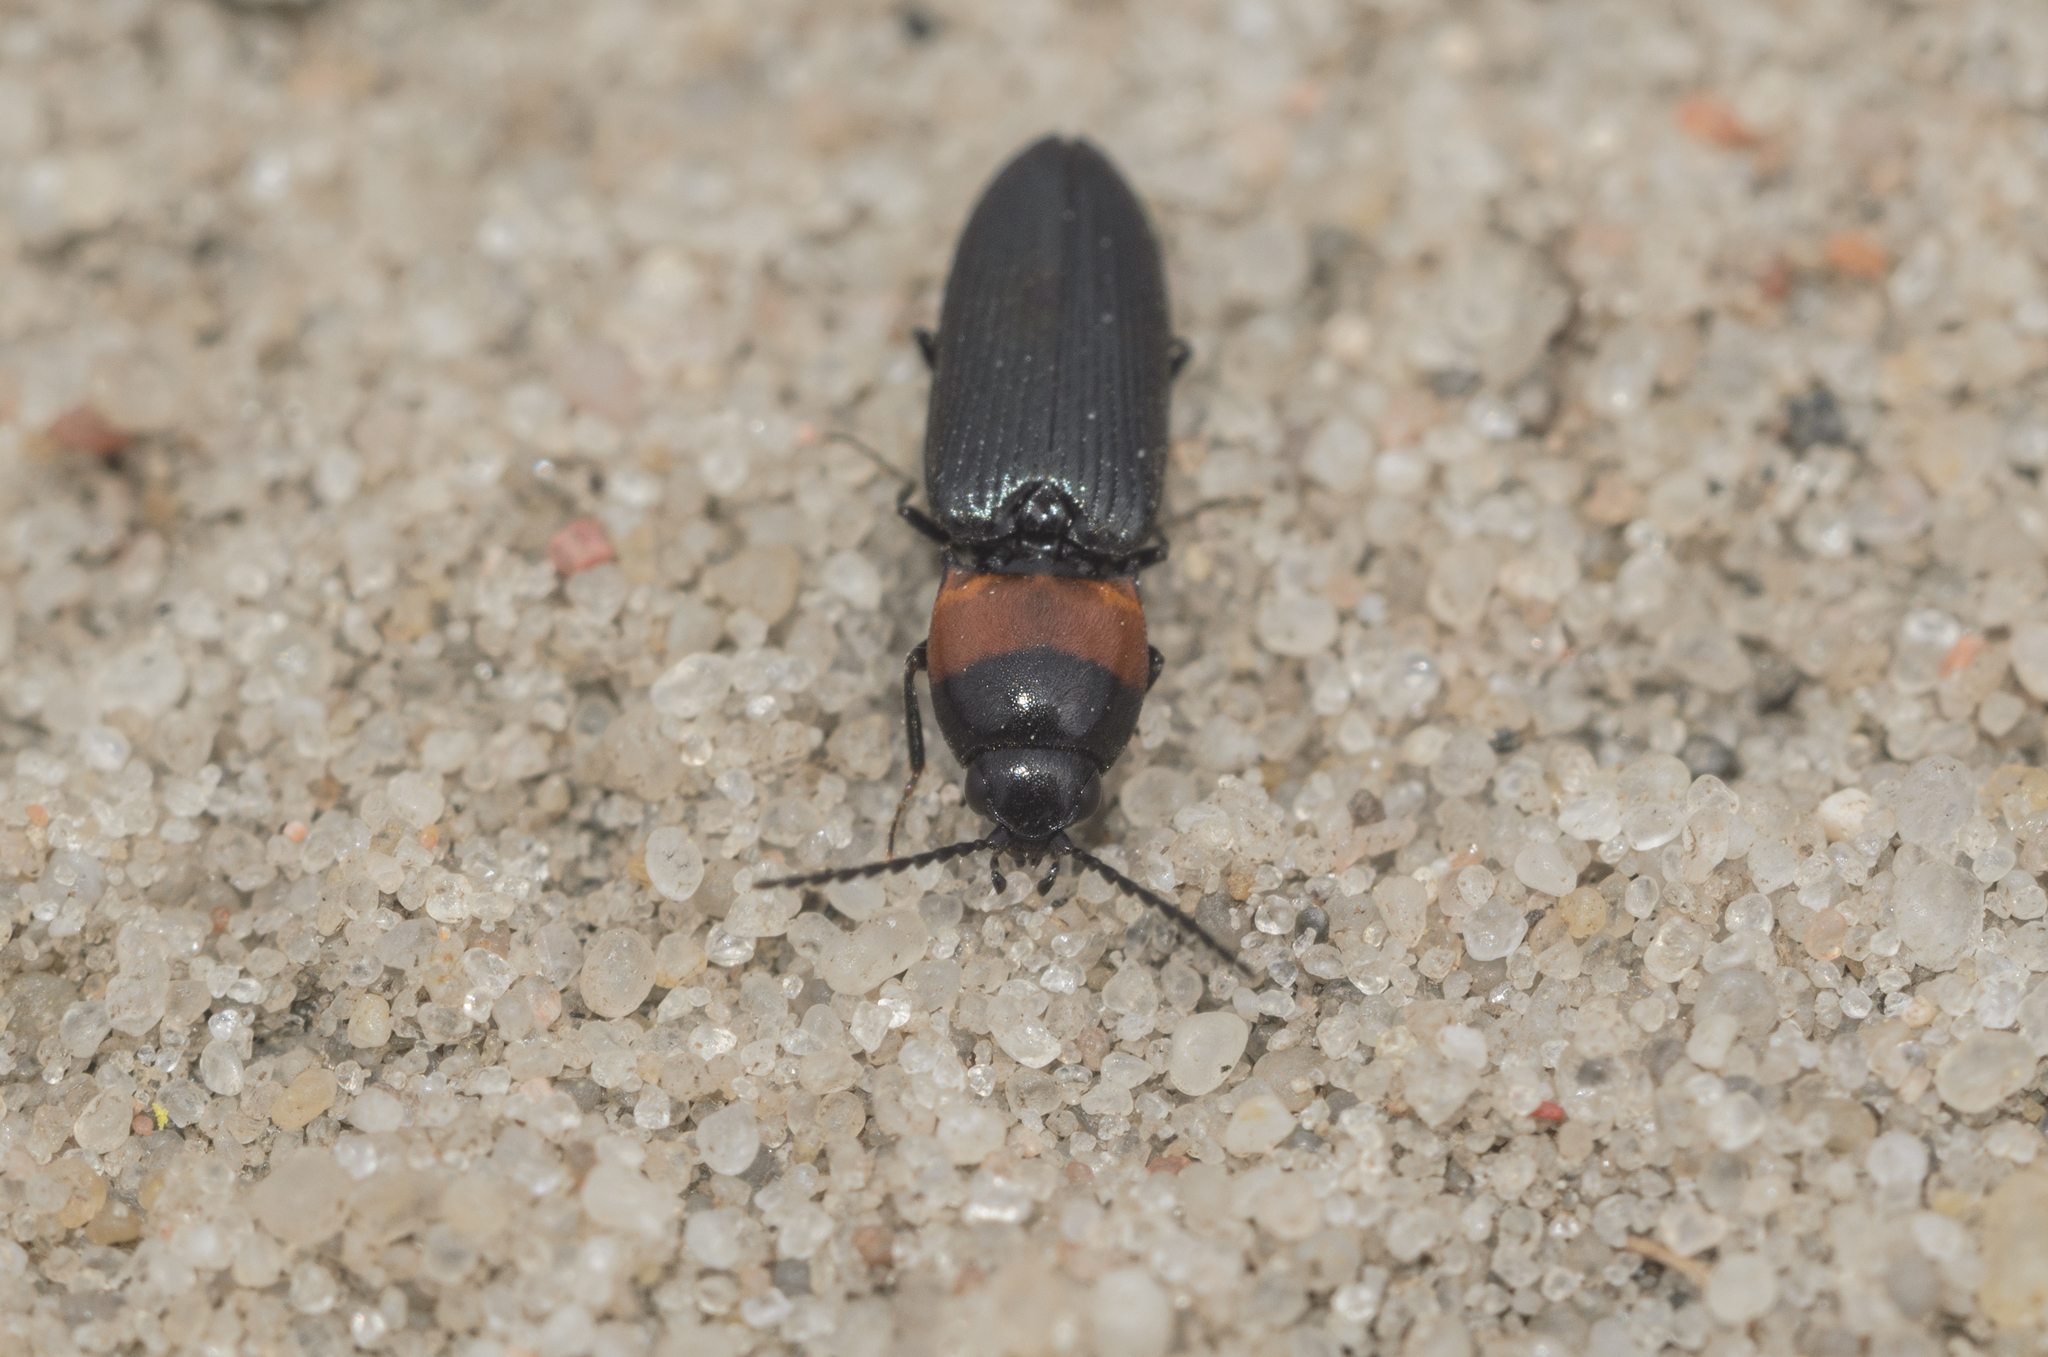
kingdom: Animalia
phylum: Arthropoda
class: Insecta
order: Coleoptera
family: Elateridae
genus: Cardiophorus
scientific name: Cardiophorus ruficollis
